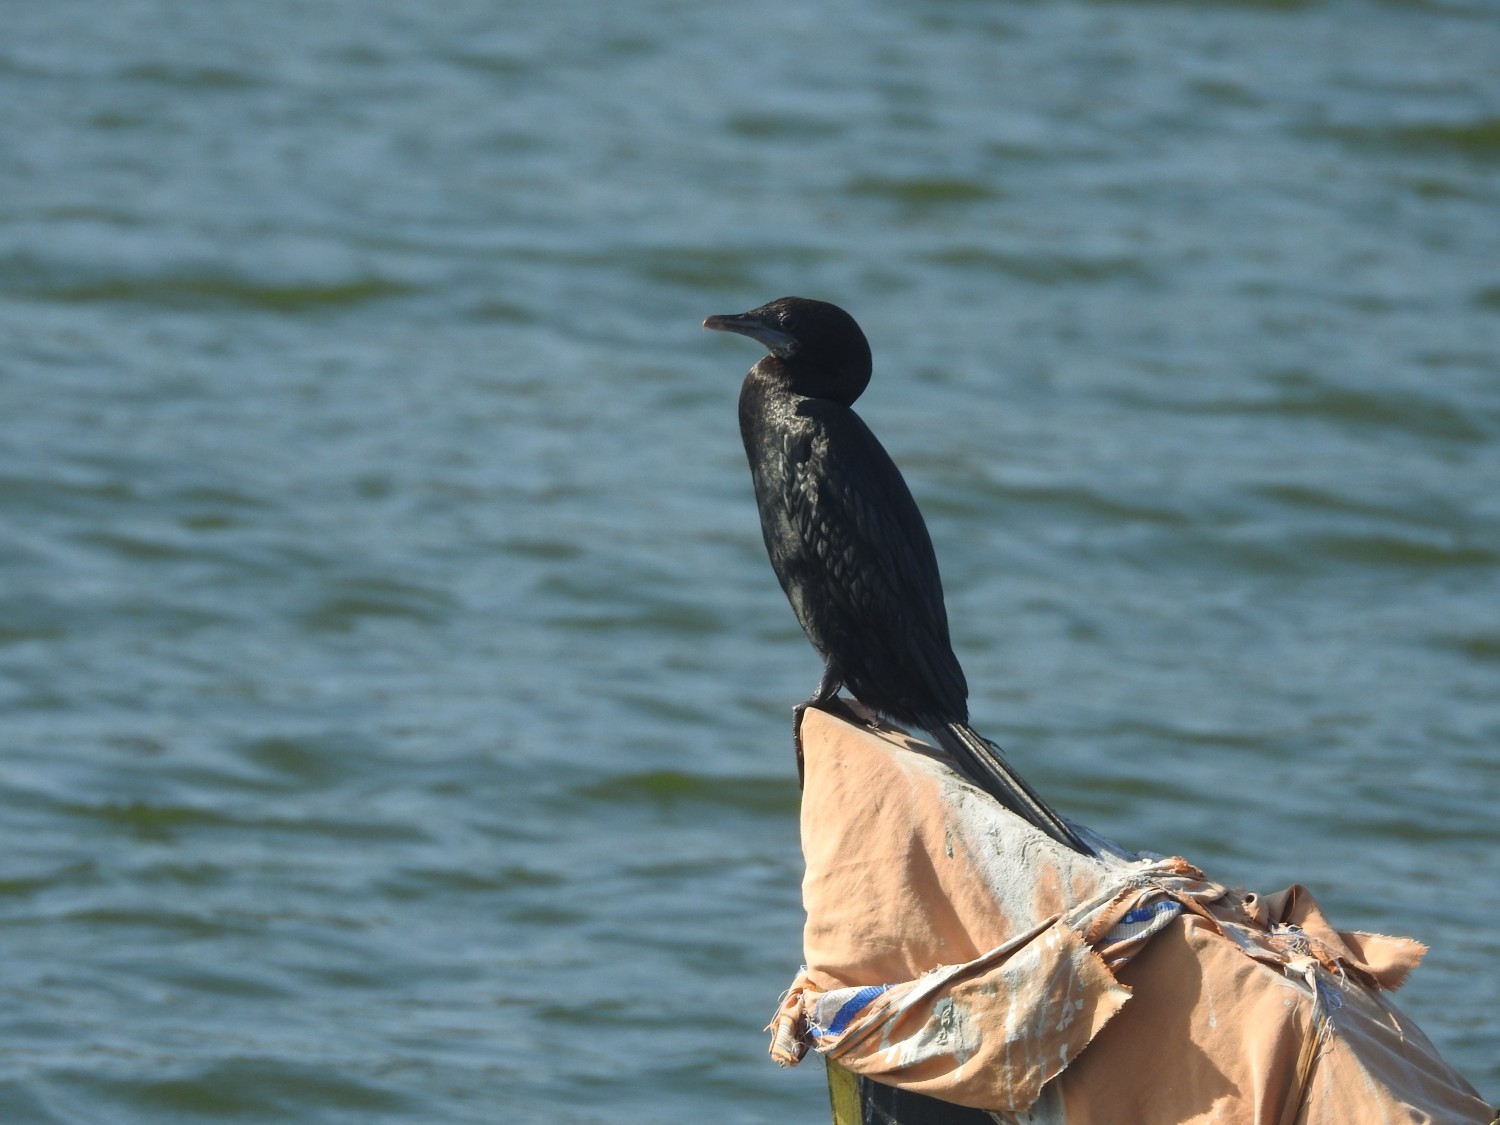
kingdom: Animalia
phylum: Chordata
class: Aves
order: Suliformes
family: Phalacrocoracidae
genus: Microcarbo
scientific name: Microcarbo niger
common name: Little cormorant
